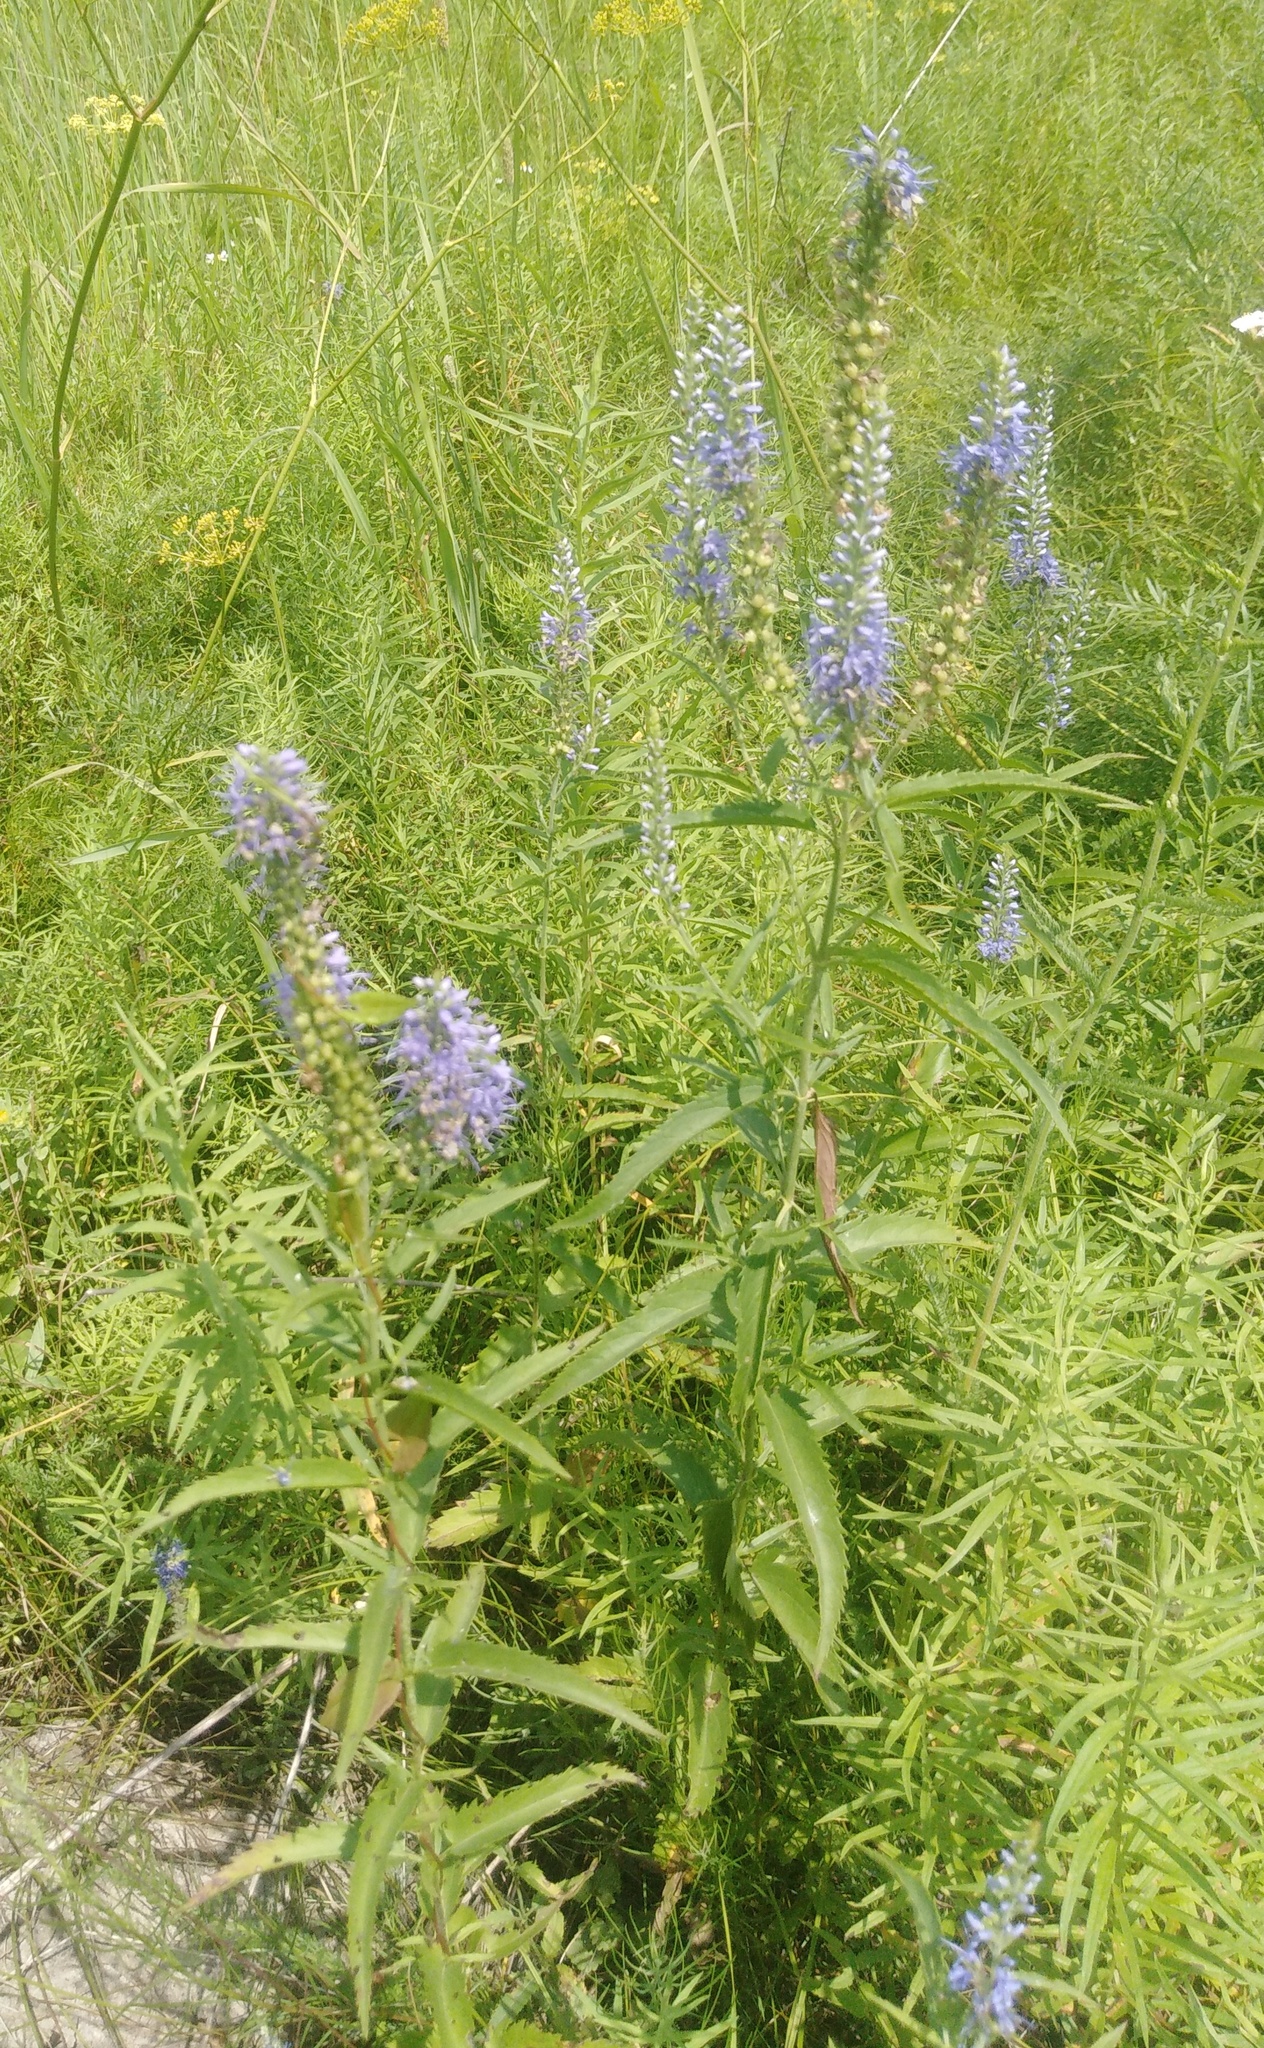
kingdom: Plantae
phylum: Tracheophyta
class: Magnoliopsida
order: Lamiales
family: Plantaginaceae
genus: Veronica
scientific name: Veronica longifolia
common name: Garden speedwell
